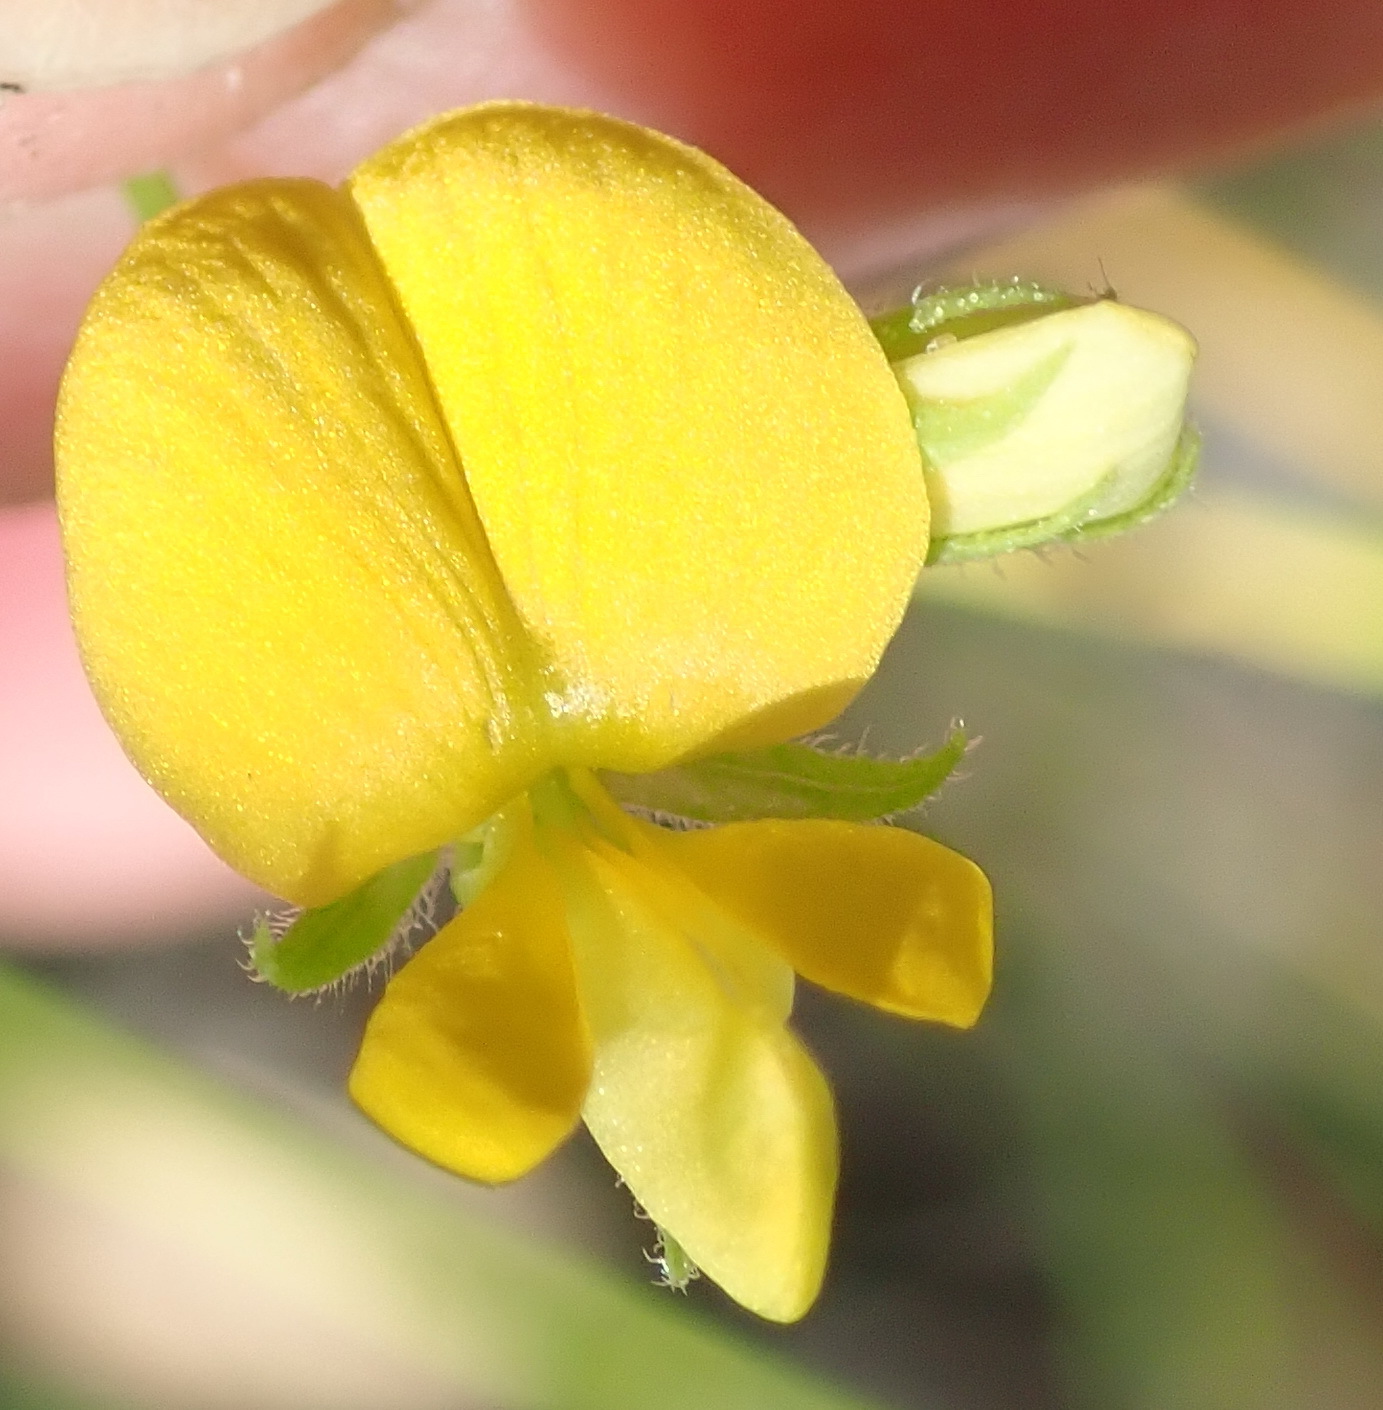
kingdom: Plantae
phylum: Tracheophyta
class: Magnoliopsida
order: Fabales
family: Fabaceae
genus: Rhynchosia
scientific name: Rhynchosia leucoscias
